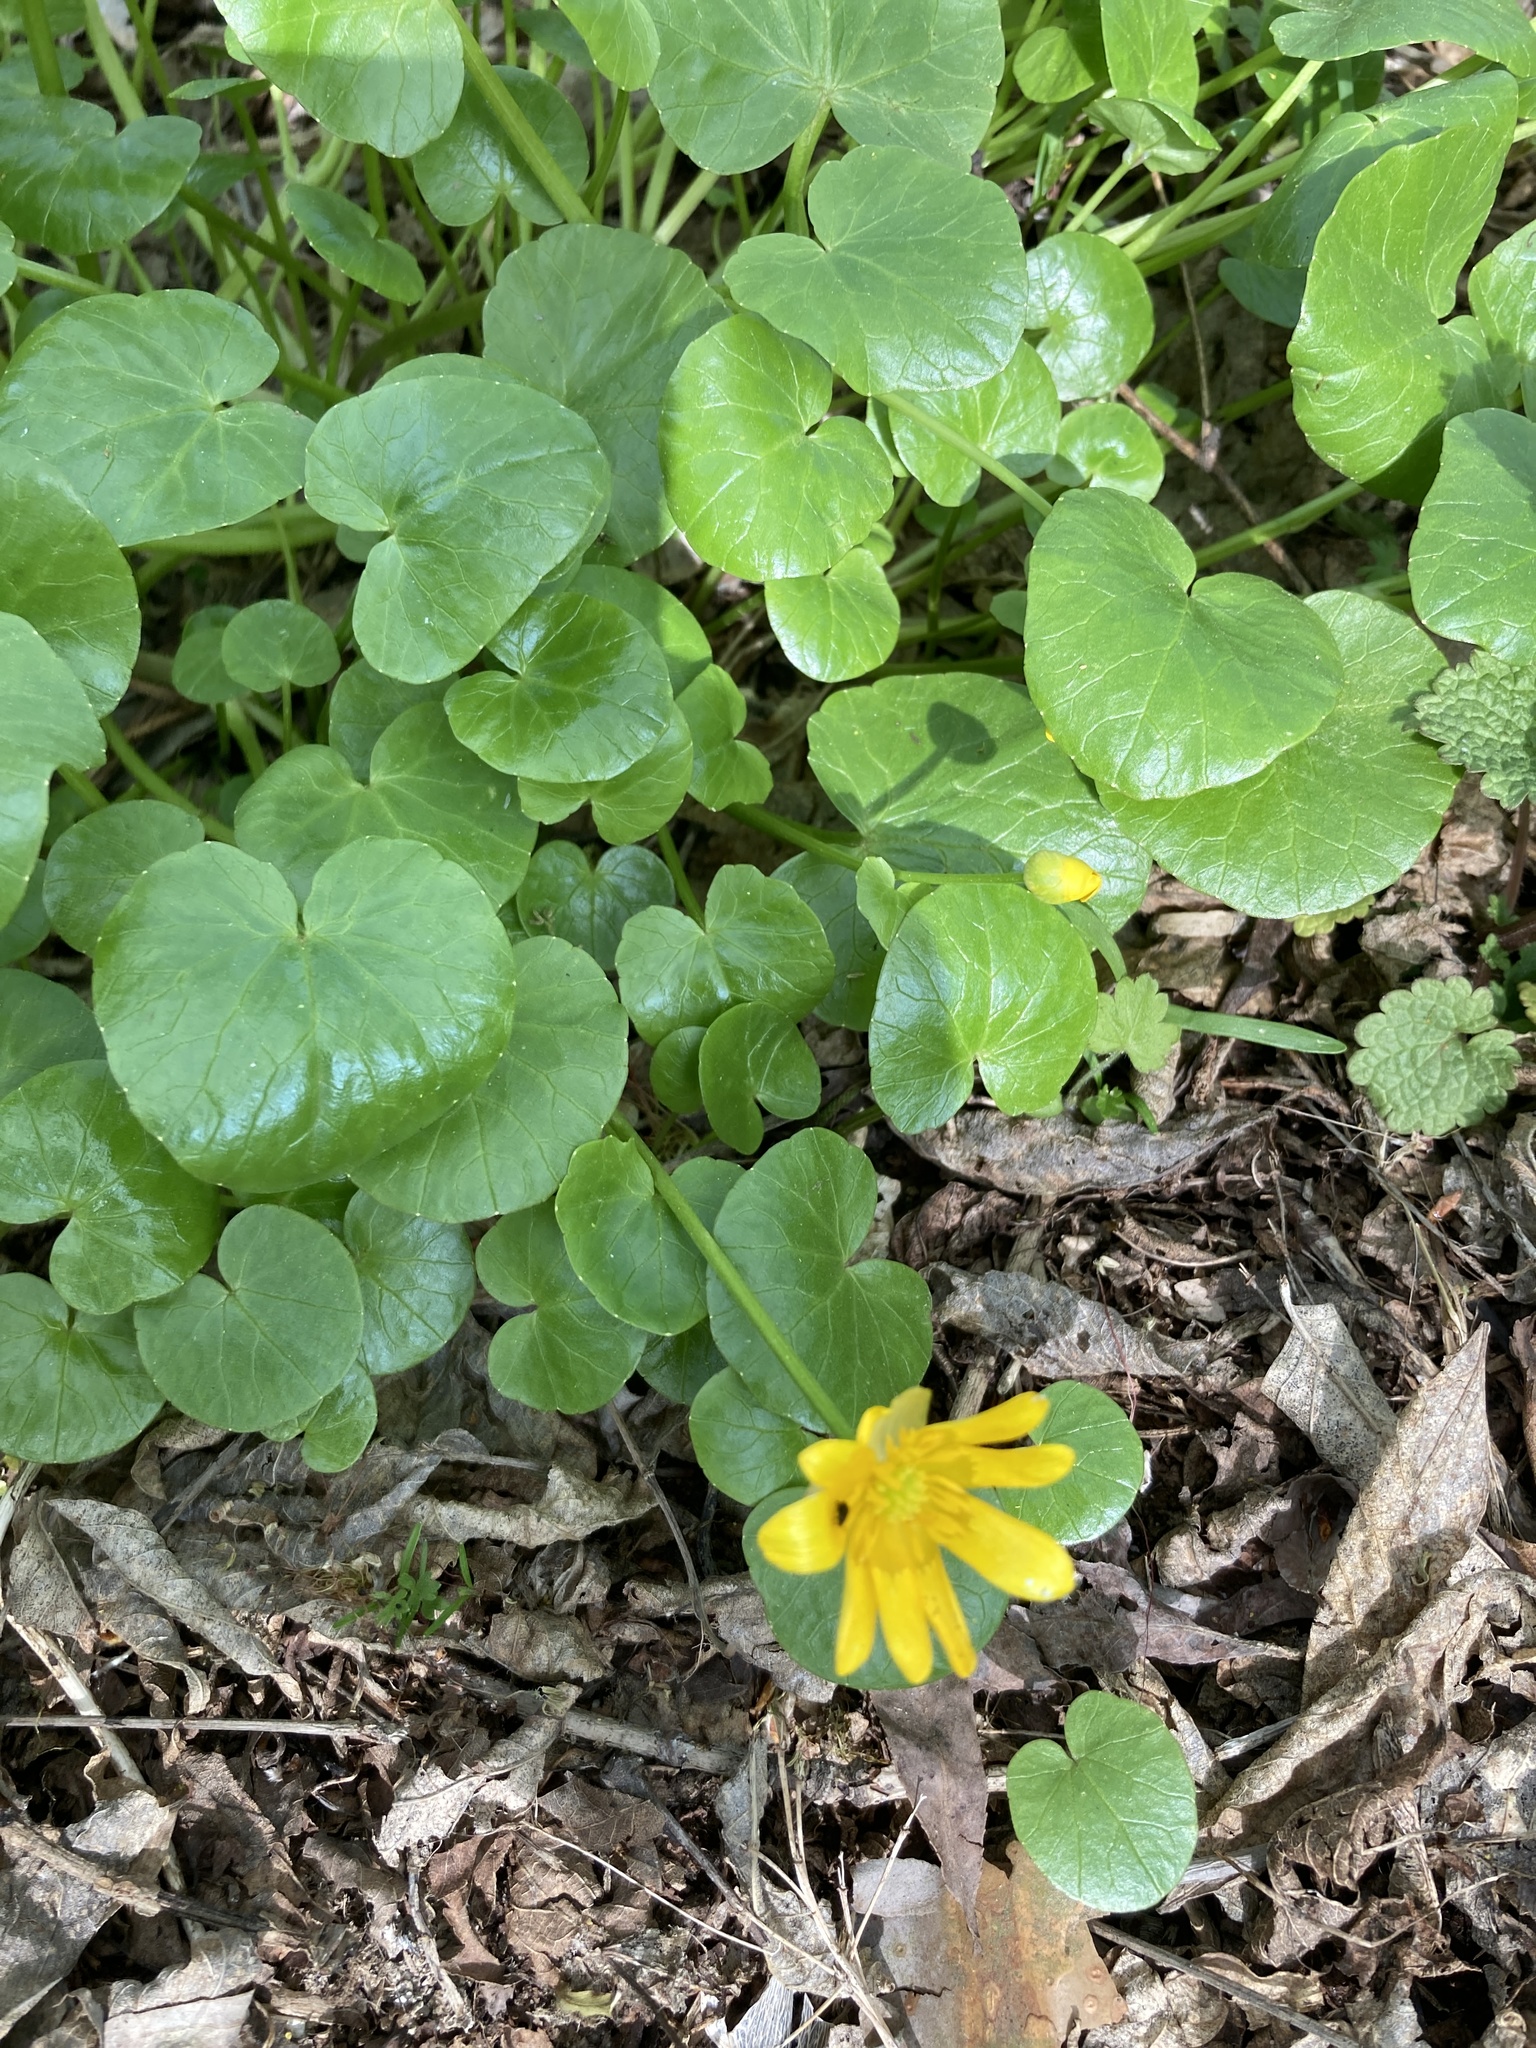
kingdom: Plantae
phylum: Tracheophyta
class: Magnoliopsida
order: Ranunculales
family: Ranunculaceae
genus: Ficaria
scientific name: Ficaria verna
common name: Lesser celandine
